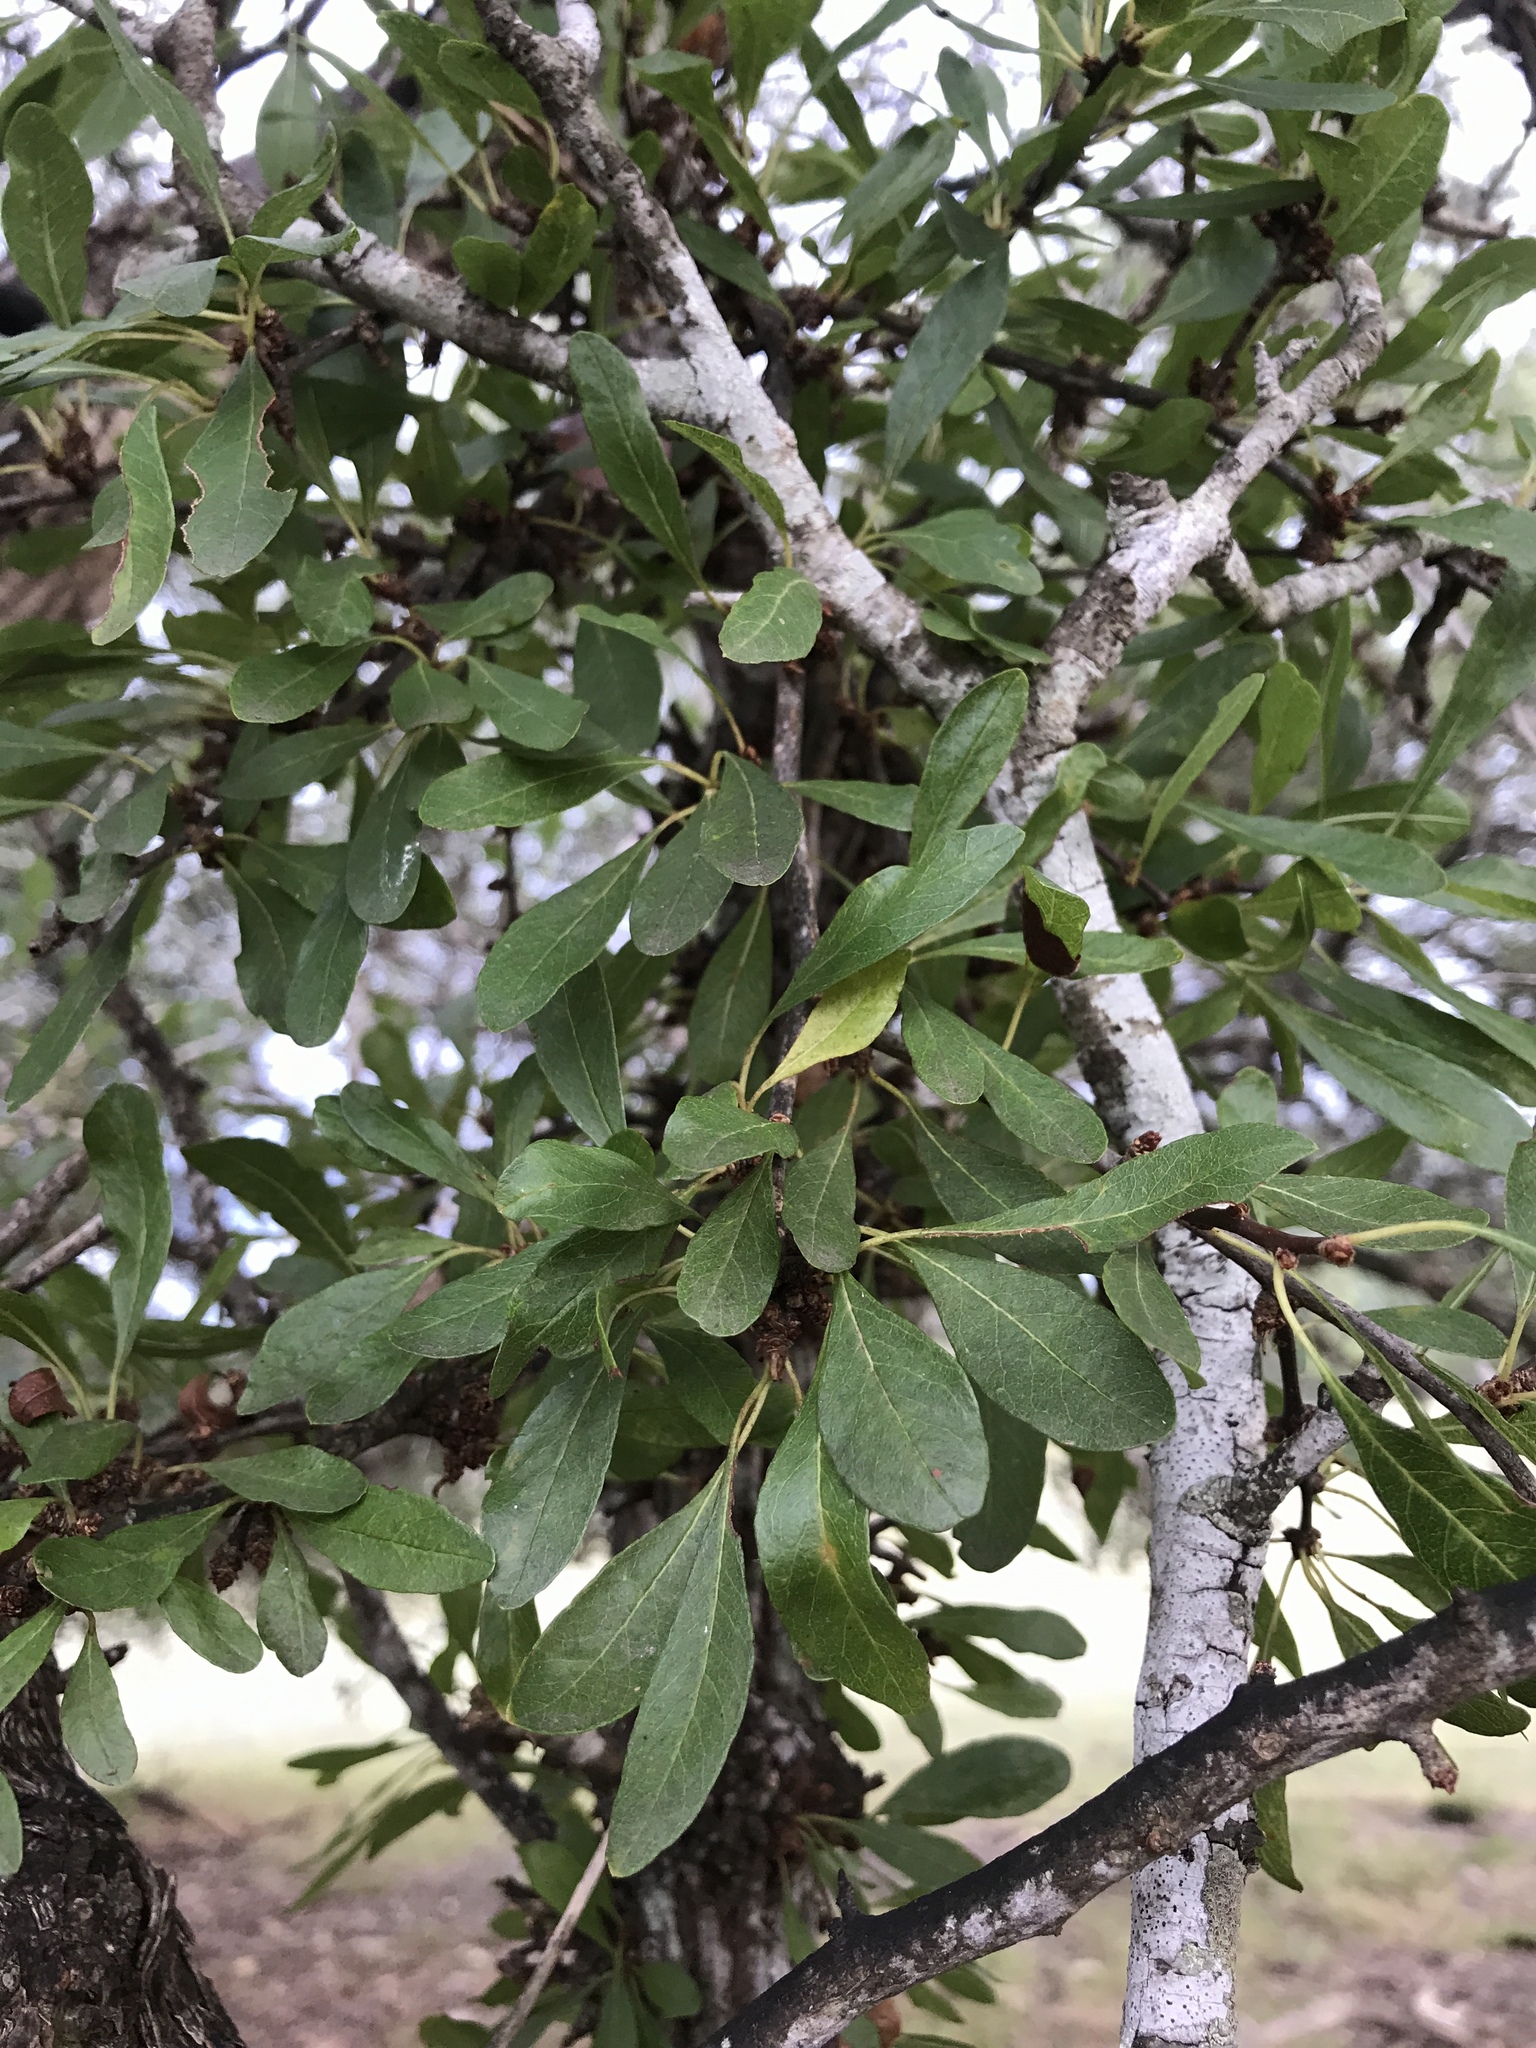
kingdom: Plantae
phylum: Tracheophyta
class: Magnoliopsida
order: Ericales
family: Sapotaceae
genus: Sideroxylon
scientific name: Sideroxylon lanuginosum
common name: Chittamwood
